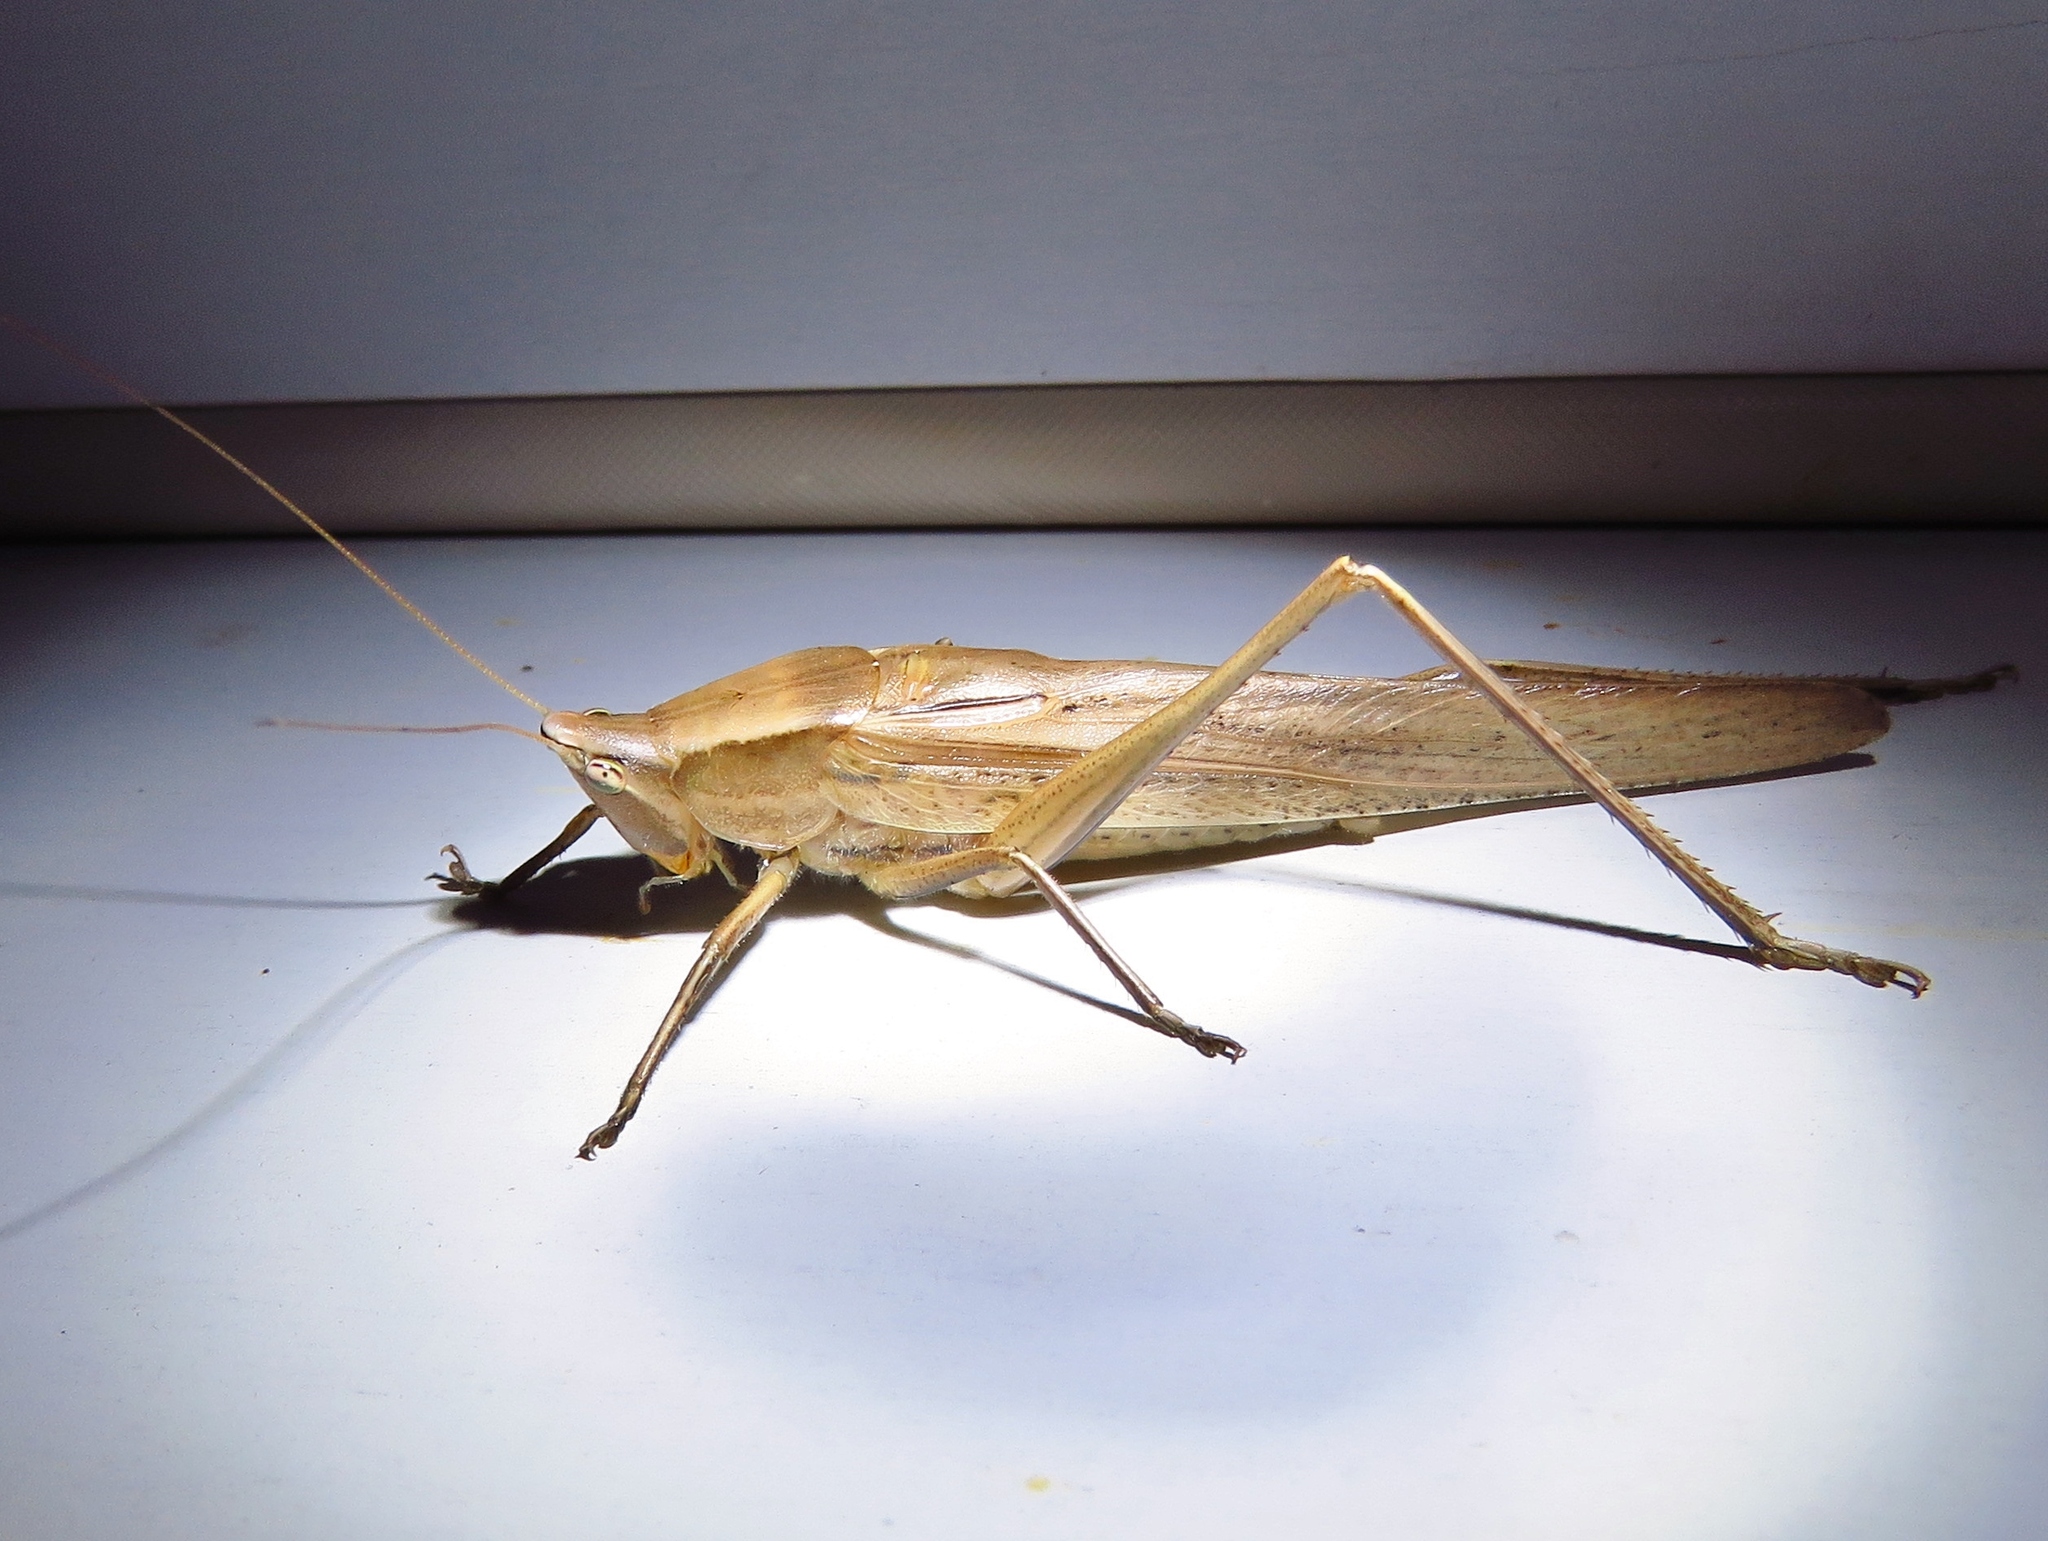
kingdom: Animalia
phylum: Arthropoda
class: Insecta
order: Orthoptera
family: Tettigoniidae
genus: Neoconocephalus
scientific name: Neoconocephalus triops
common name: Broad-tipped conehead
